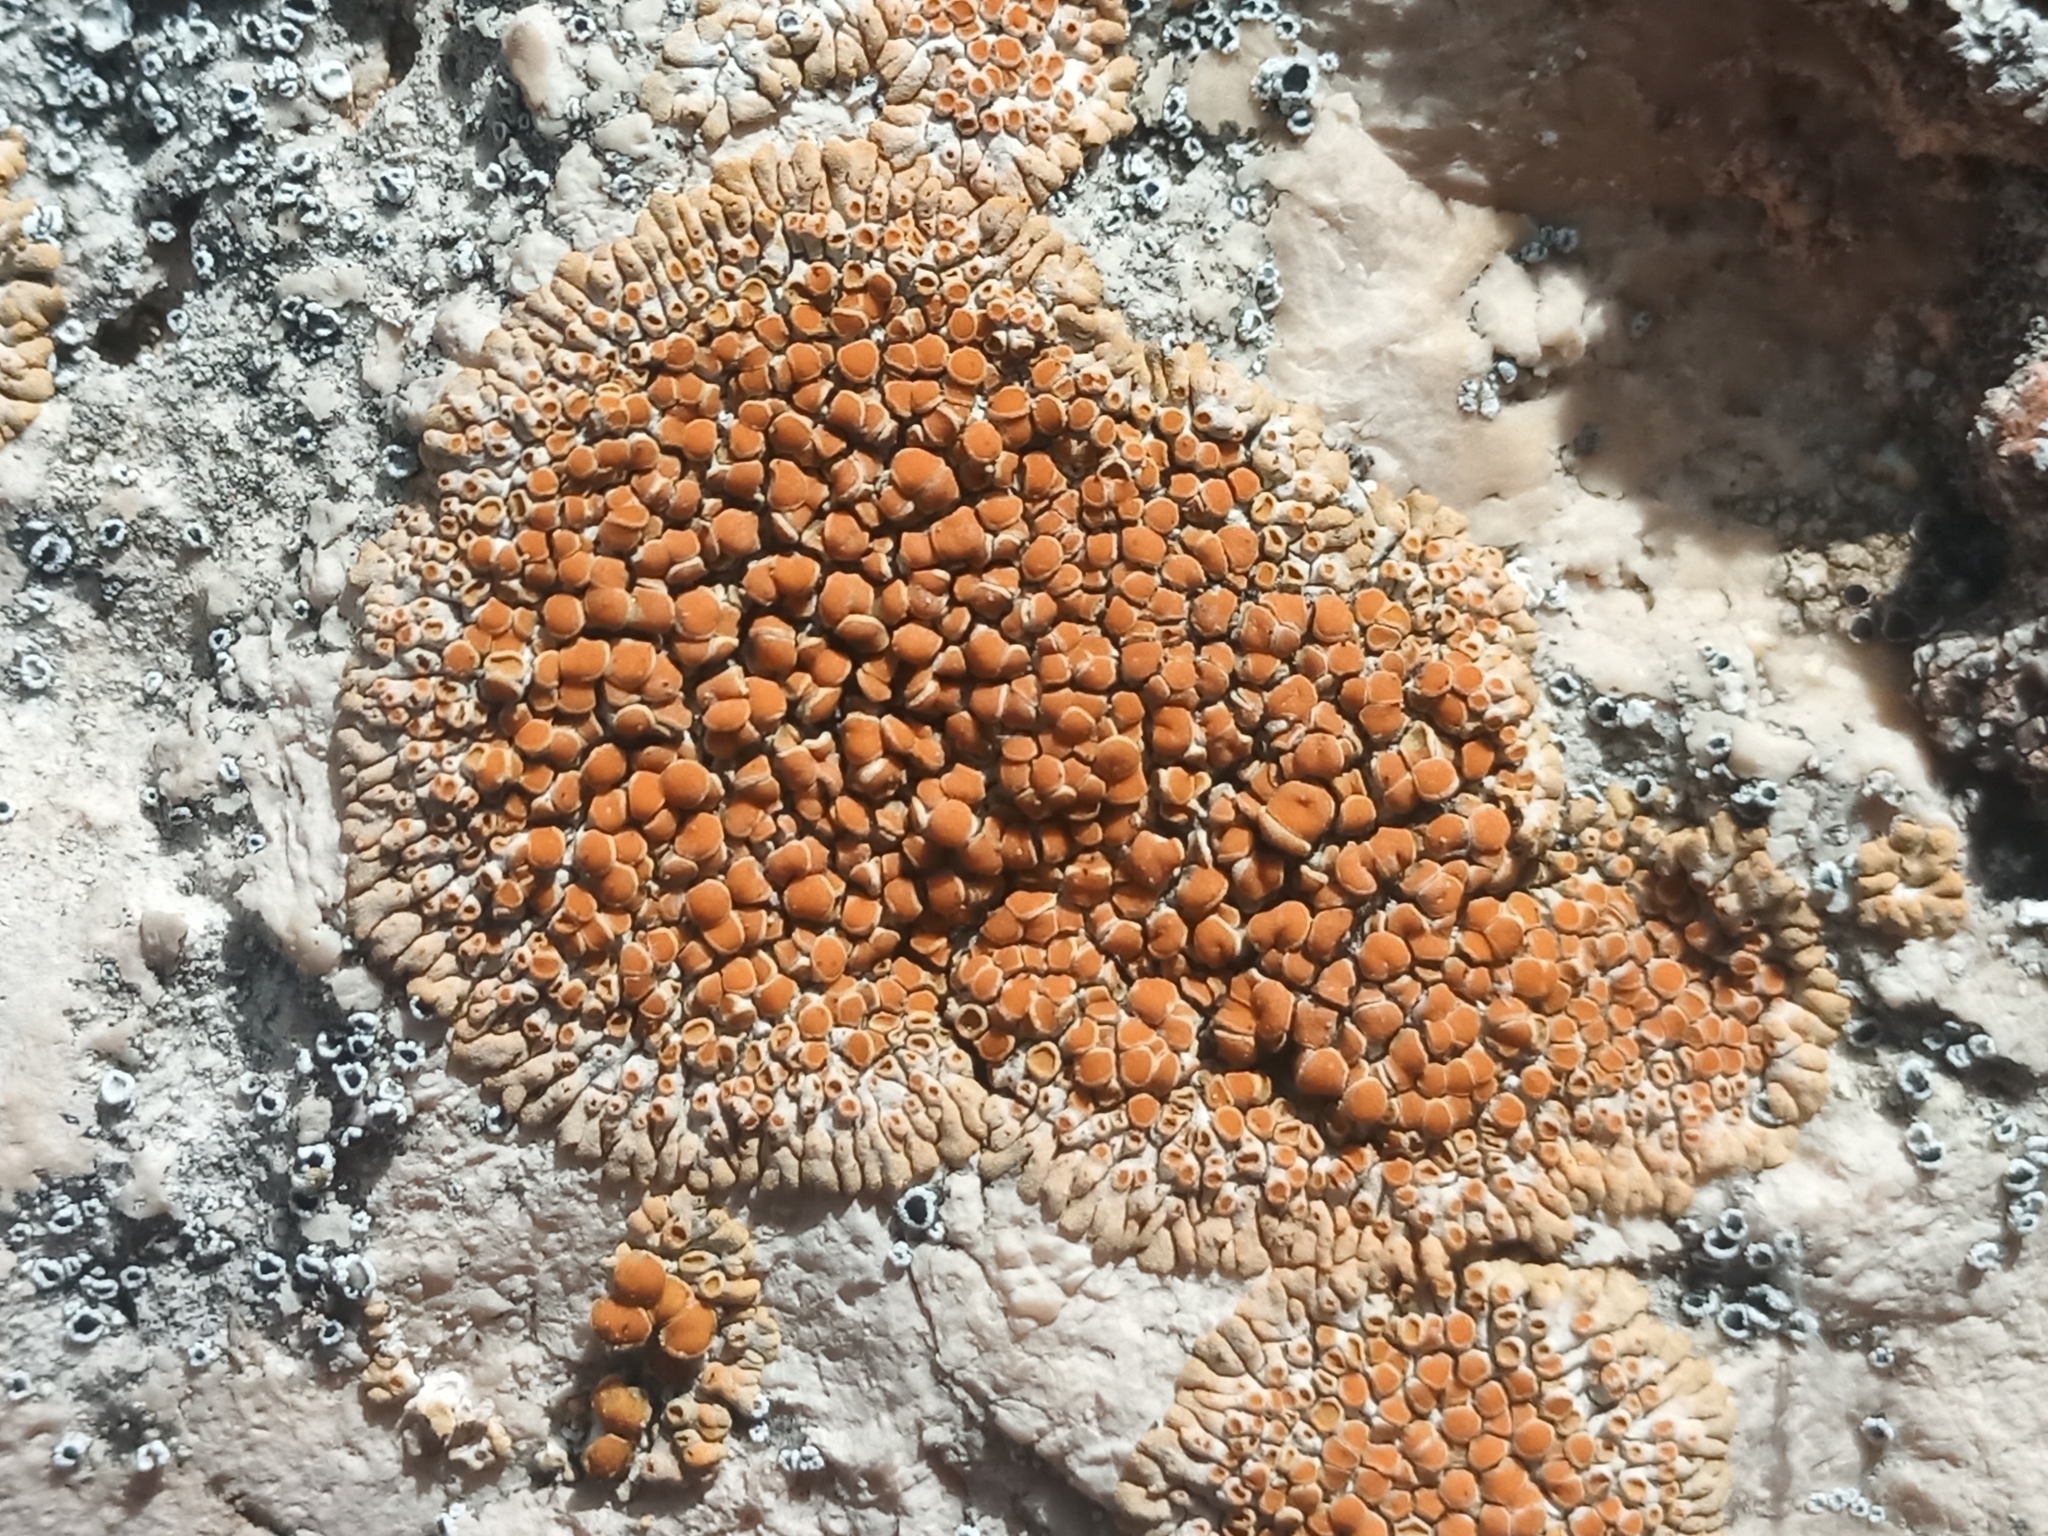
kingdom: Fungi
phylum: Ascomycota
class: Lecanoromycetes
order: Teloschistales
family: Teloschistaceae
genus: Calogaya
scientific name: Calogaya clauzadeana
